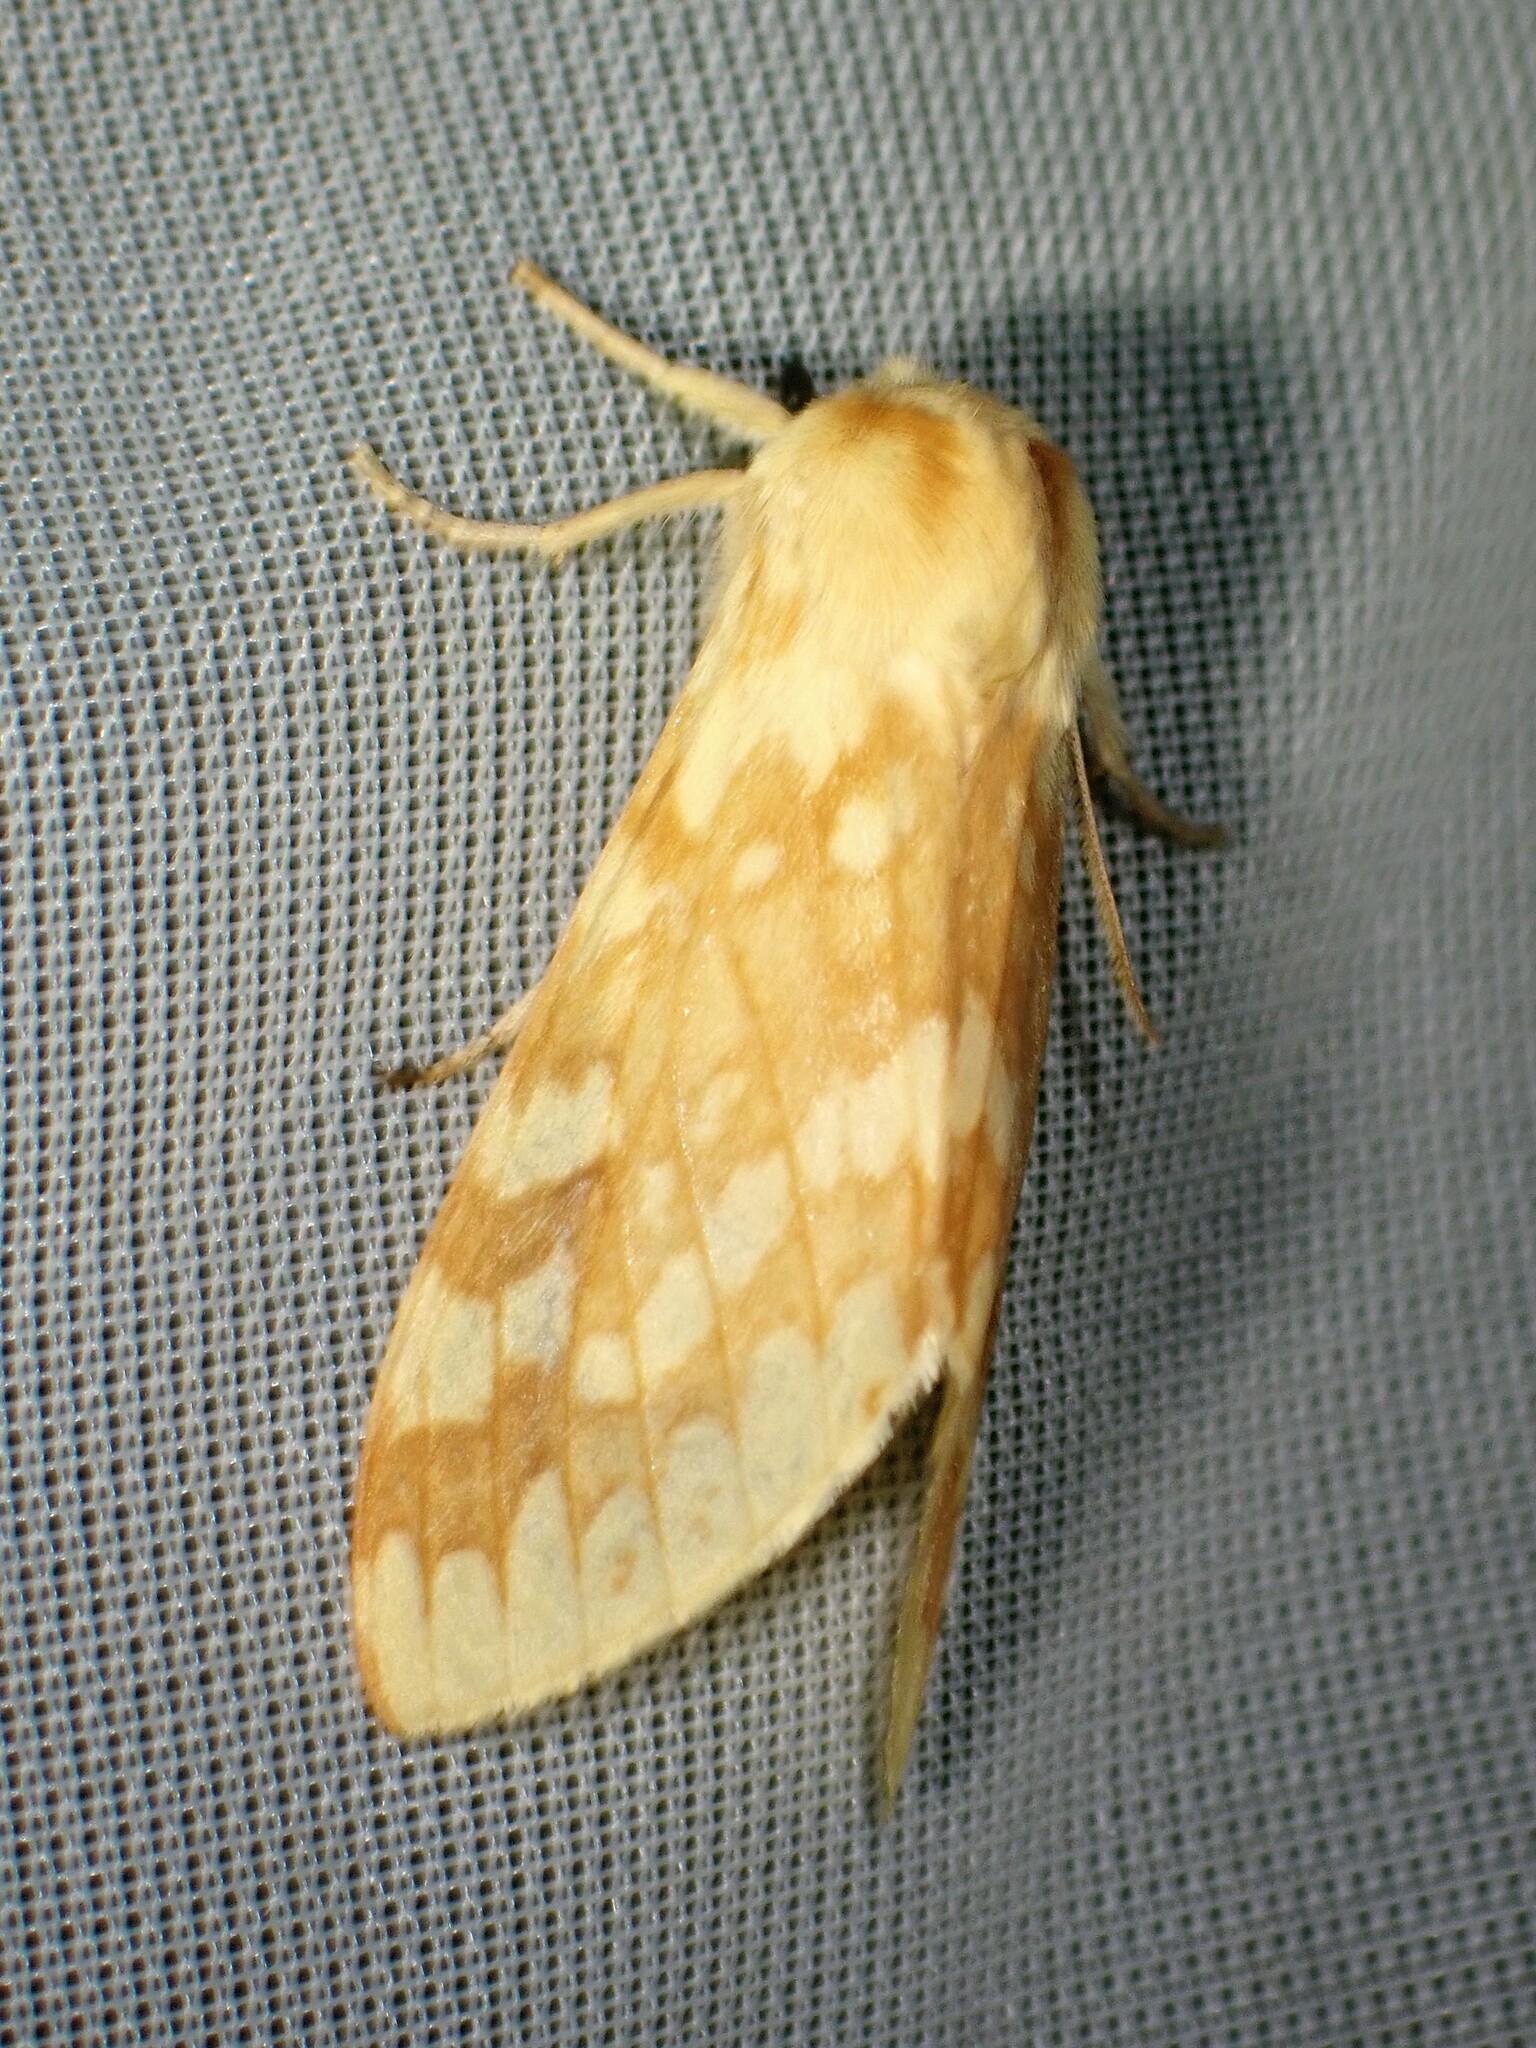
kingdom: Animalia
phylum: Arthropoda
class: Insecta
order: Lepidoptera
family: Erebidae
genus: Lophocampa
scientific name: Lophocampa maculata
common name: Spotted tussock moth
